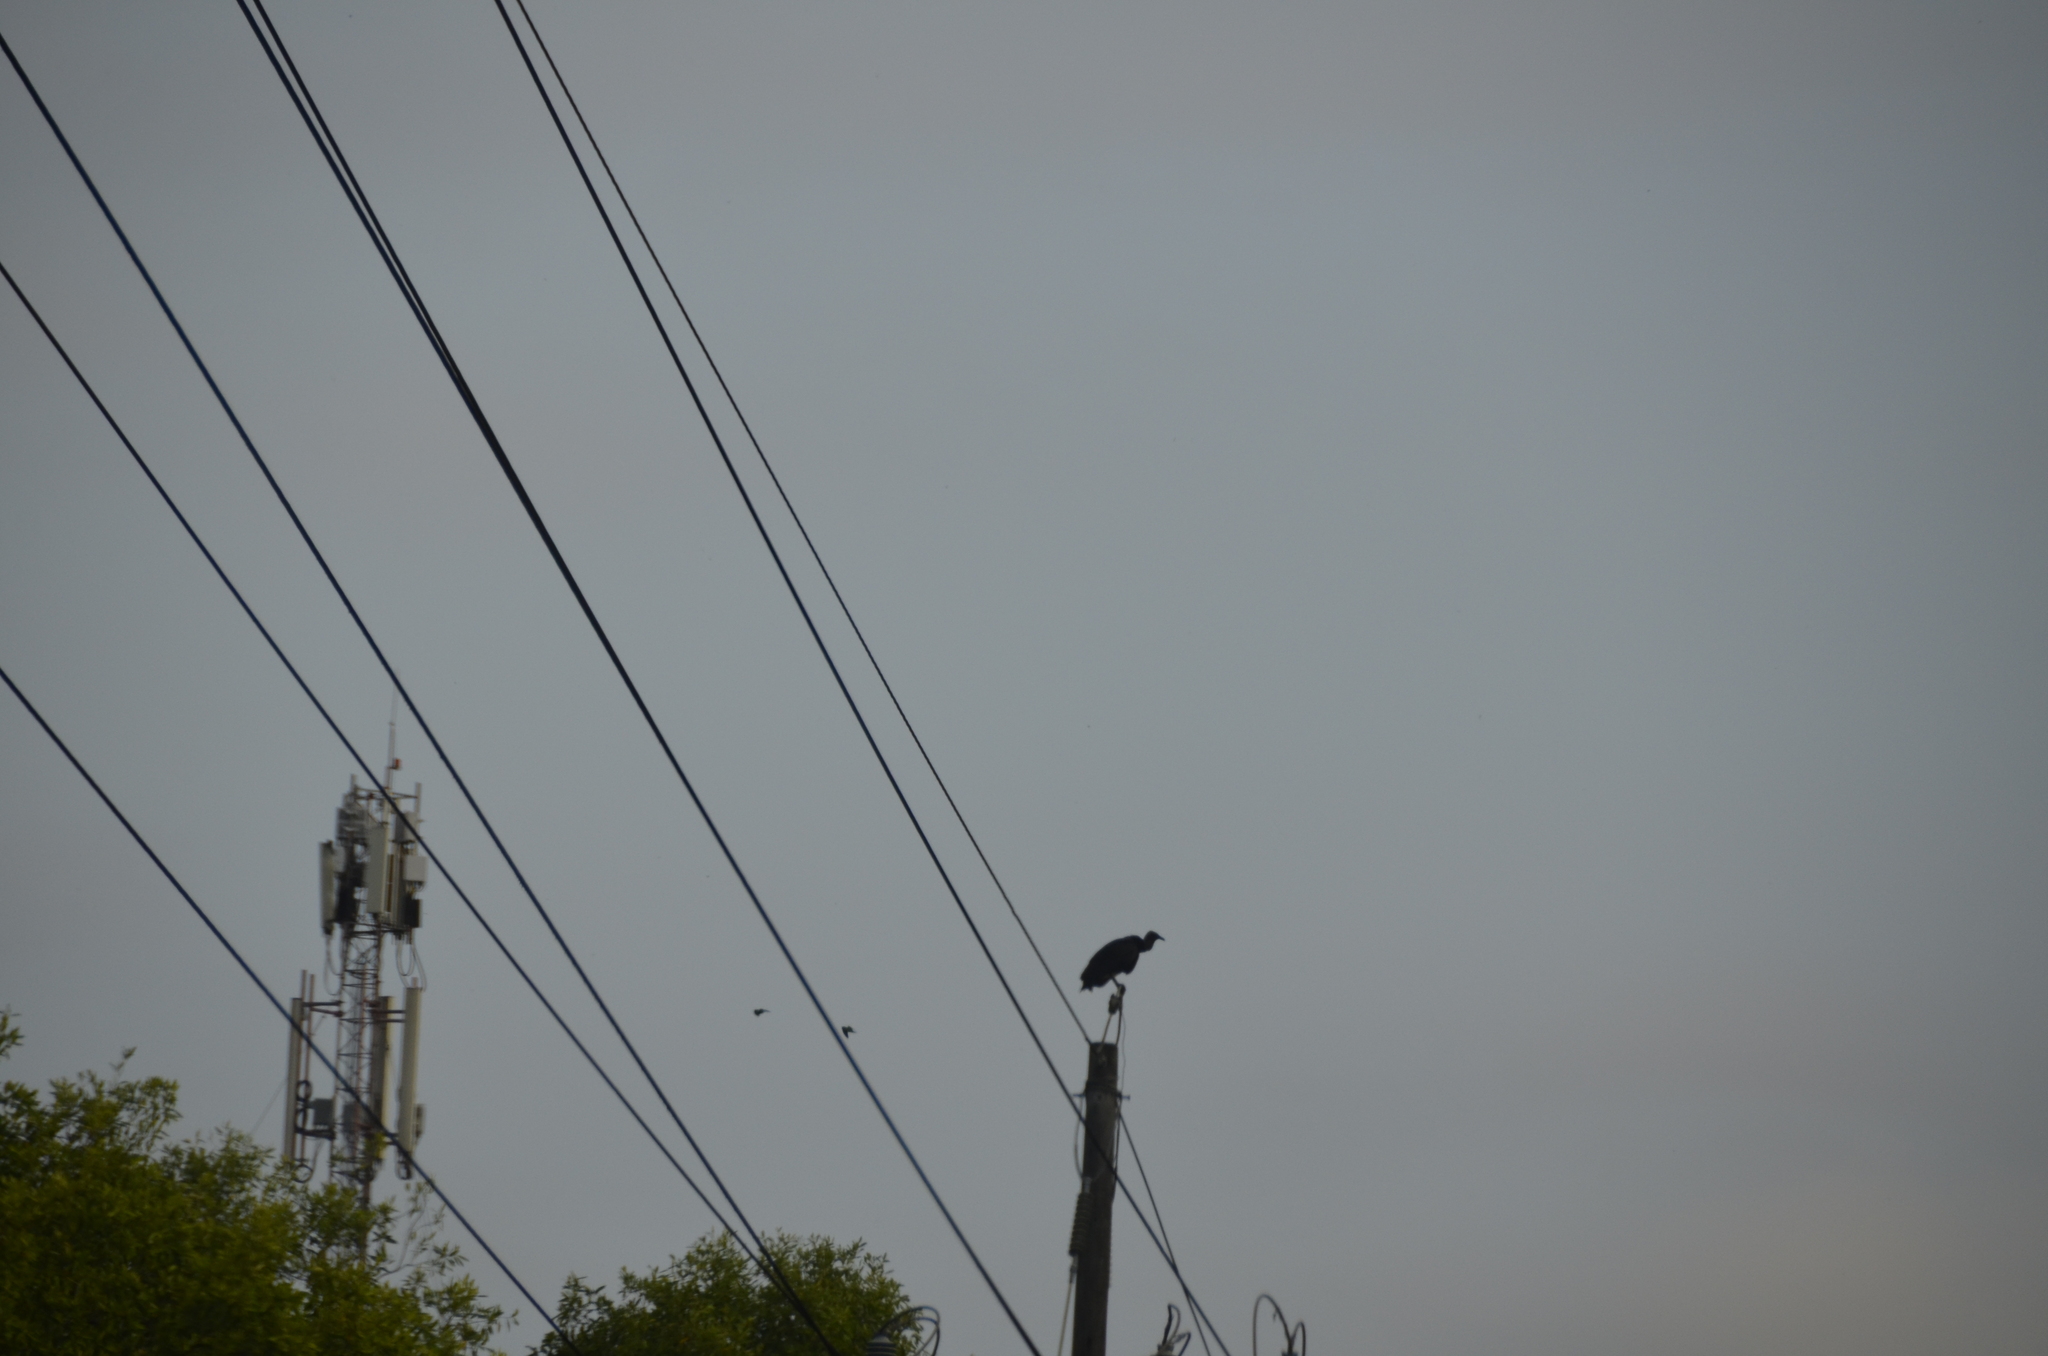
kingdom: Animalia
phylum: Chordata
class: Aves
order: Accipitriformes
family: Cathartidae
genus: Coragyps
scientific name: Coragyps atratus
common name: Black vulture
